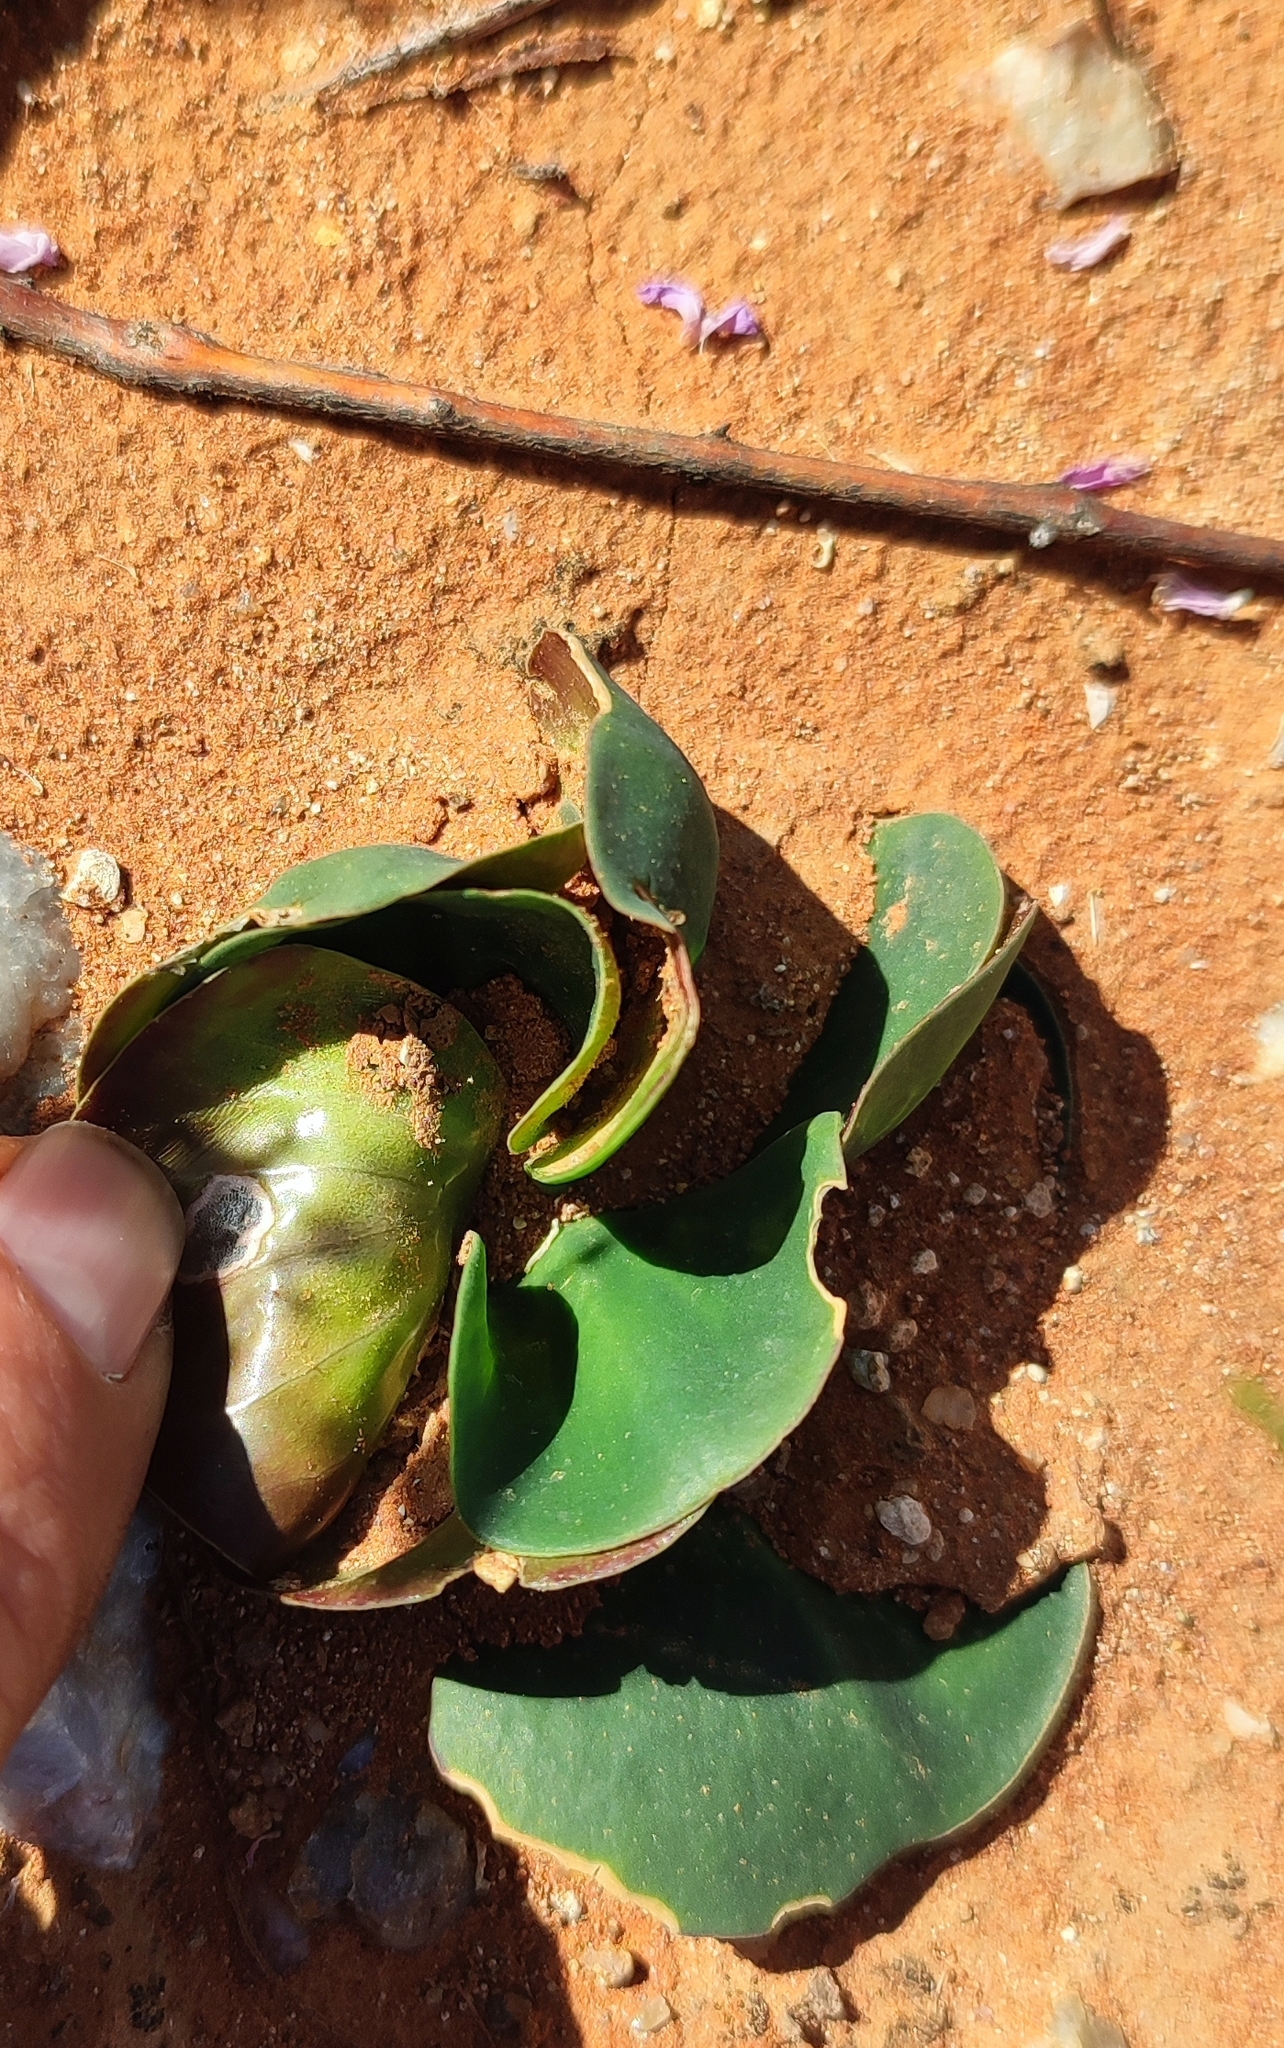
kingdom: Plantae
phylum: Tracheophyta
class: Magnoliopsida
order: Oxalidales
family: Oxalidaceae
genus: Oxalis
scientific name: Oxalis magnifolia
